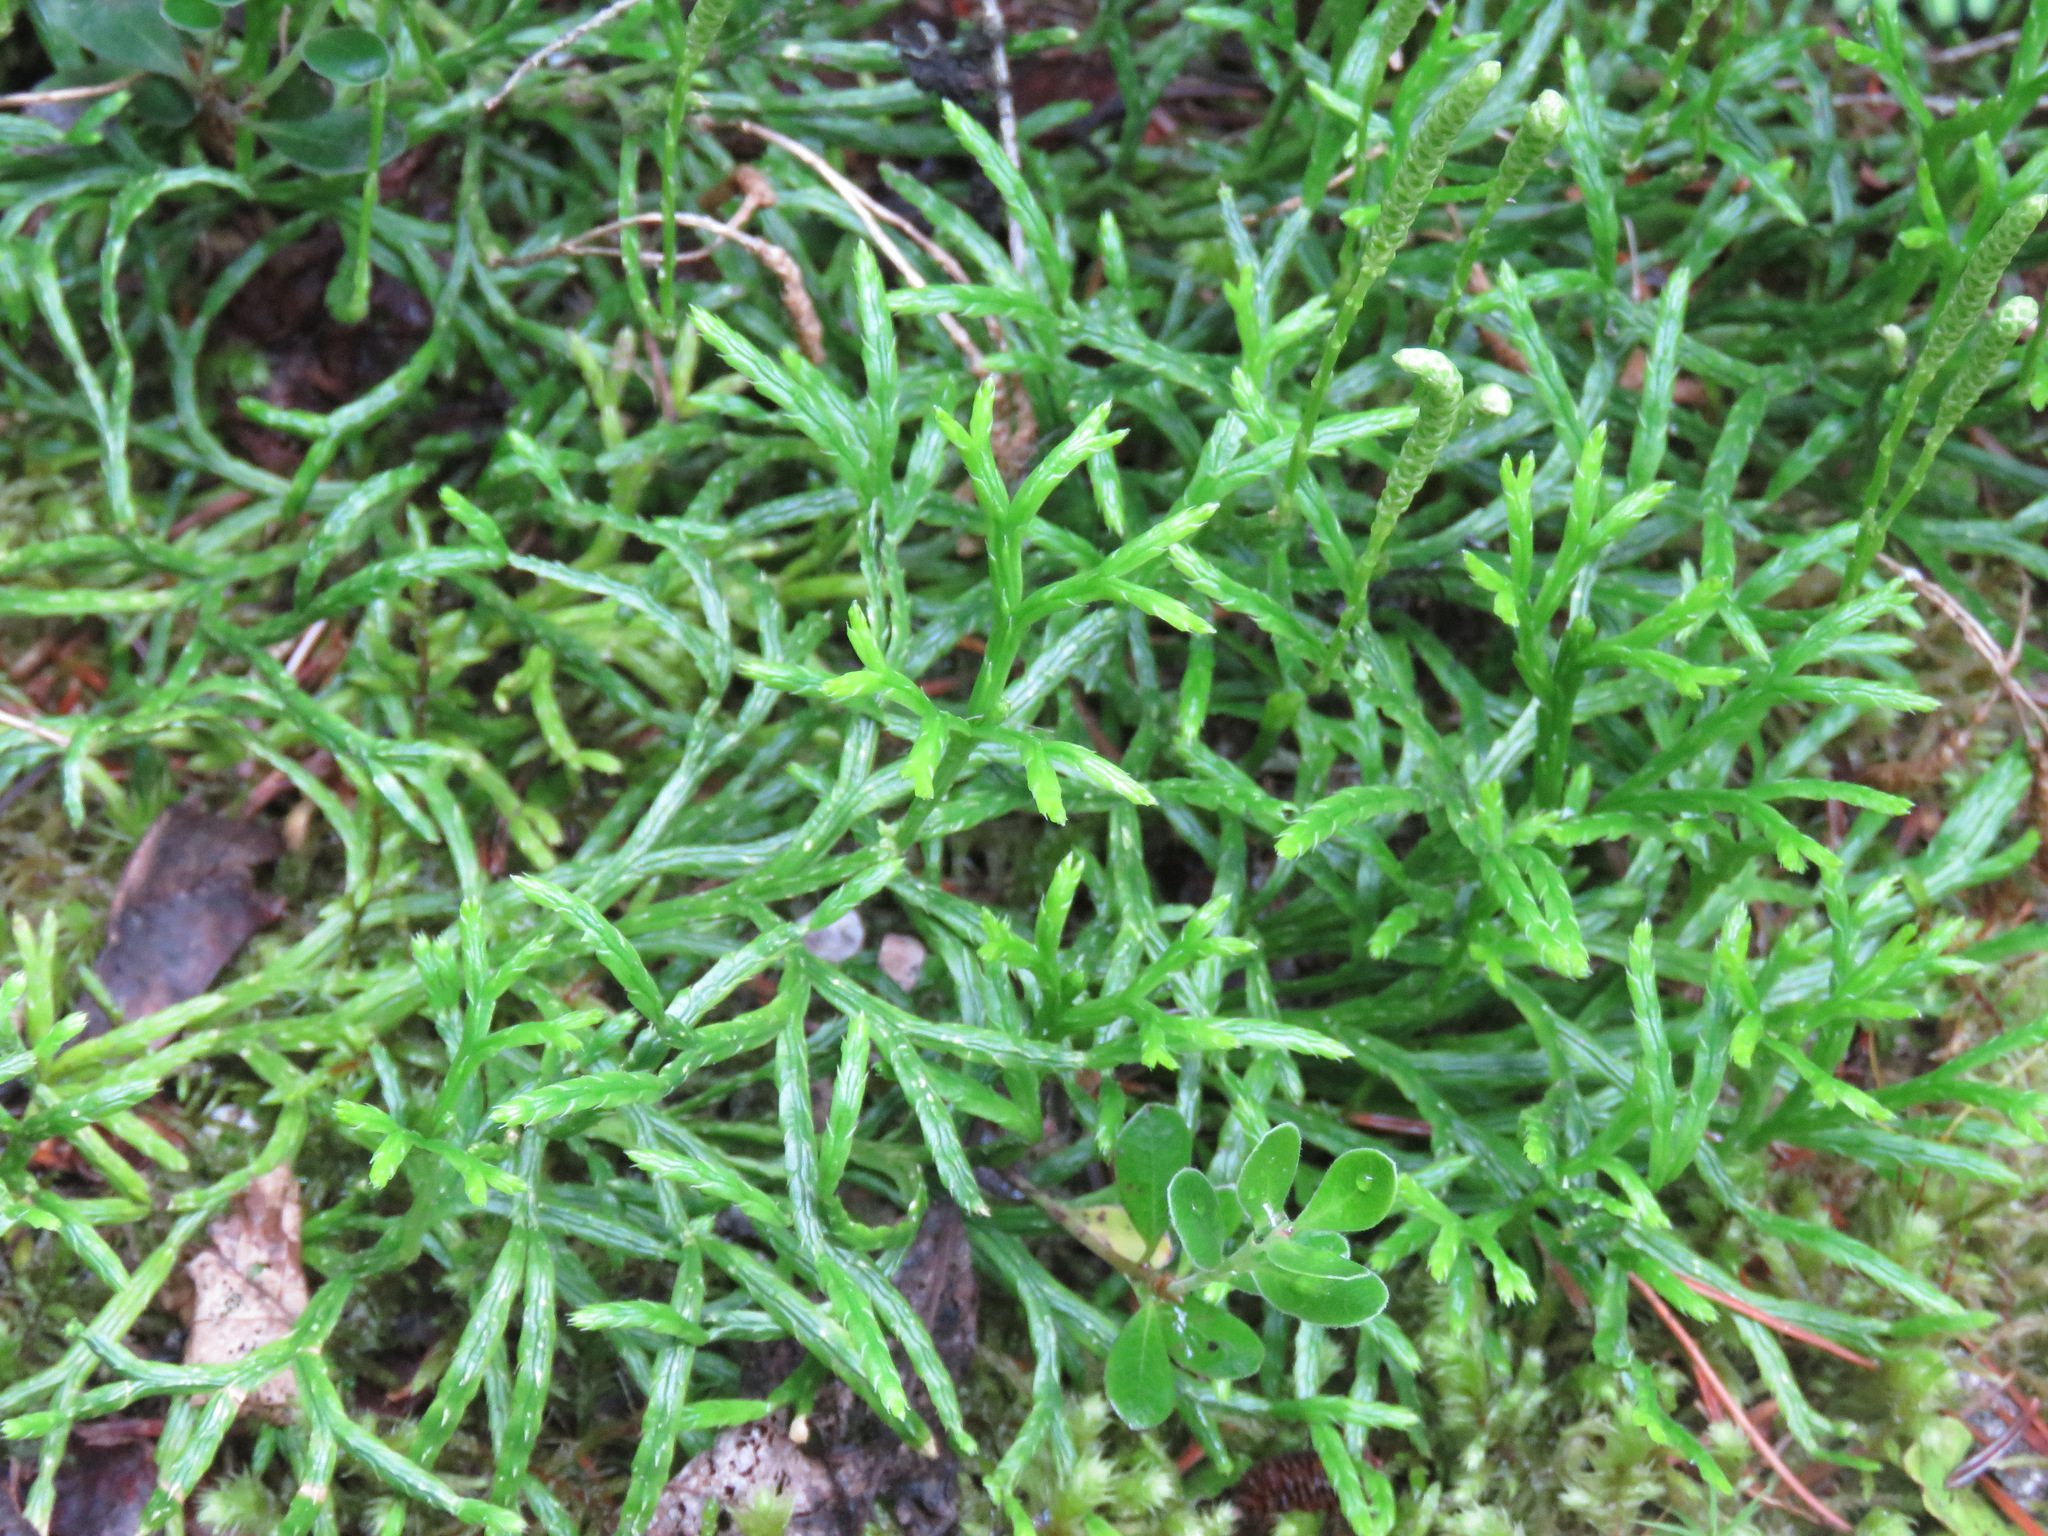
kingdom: Plantae
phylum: Tracheophyta
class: Lycopodiopsida
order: Lycopodiales
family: Lycopodiaceae
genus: Diphasiastrum
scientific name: Diphasiastrum complanatum
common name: Northern running-pine
